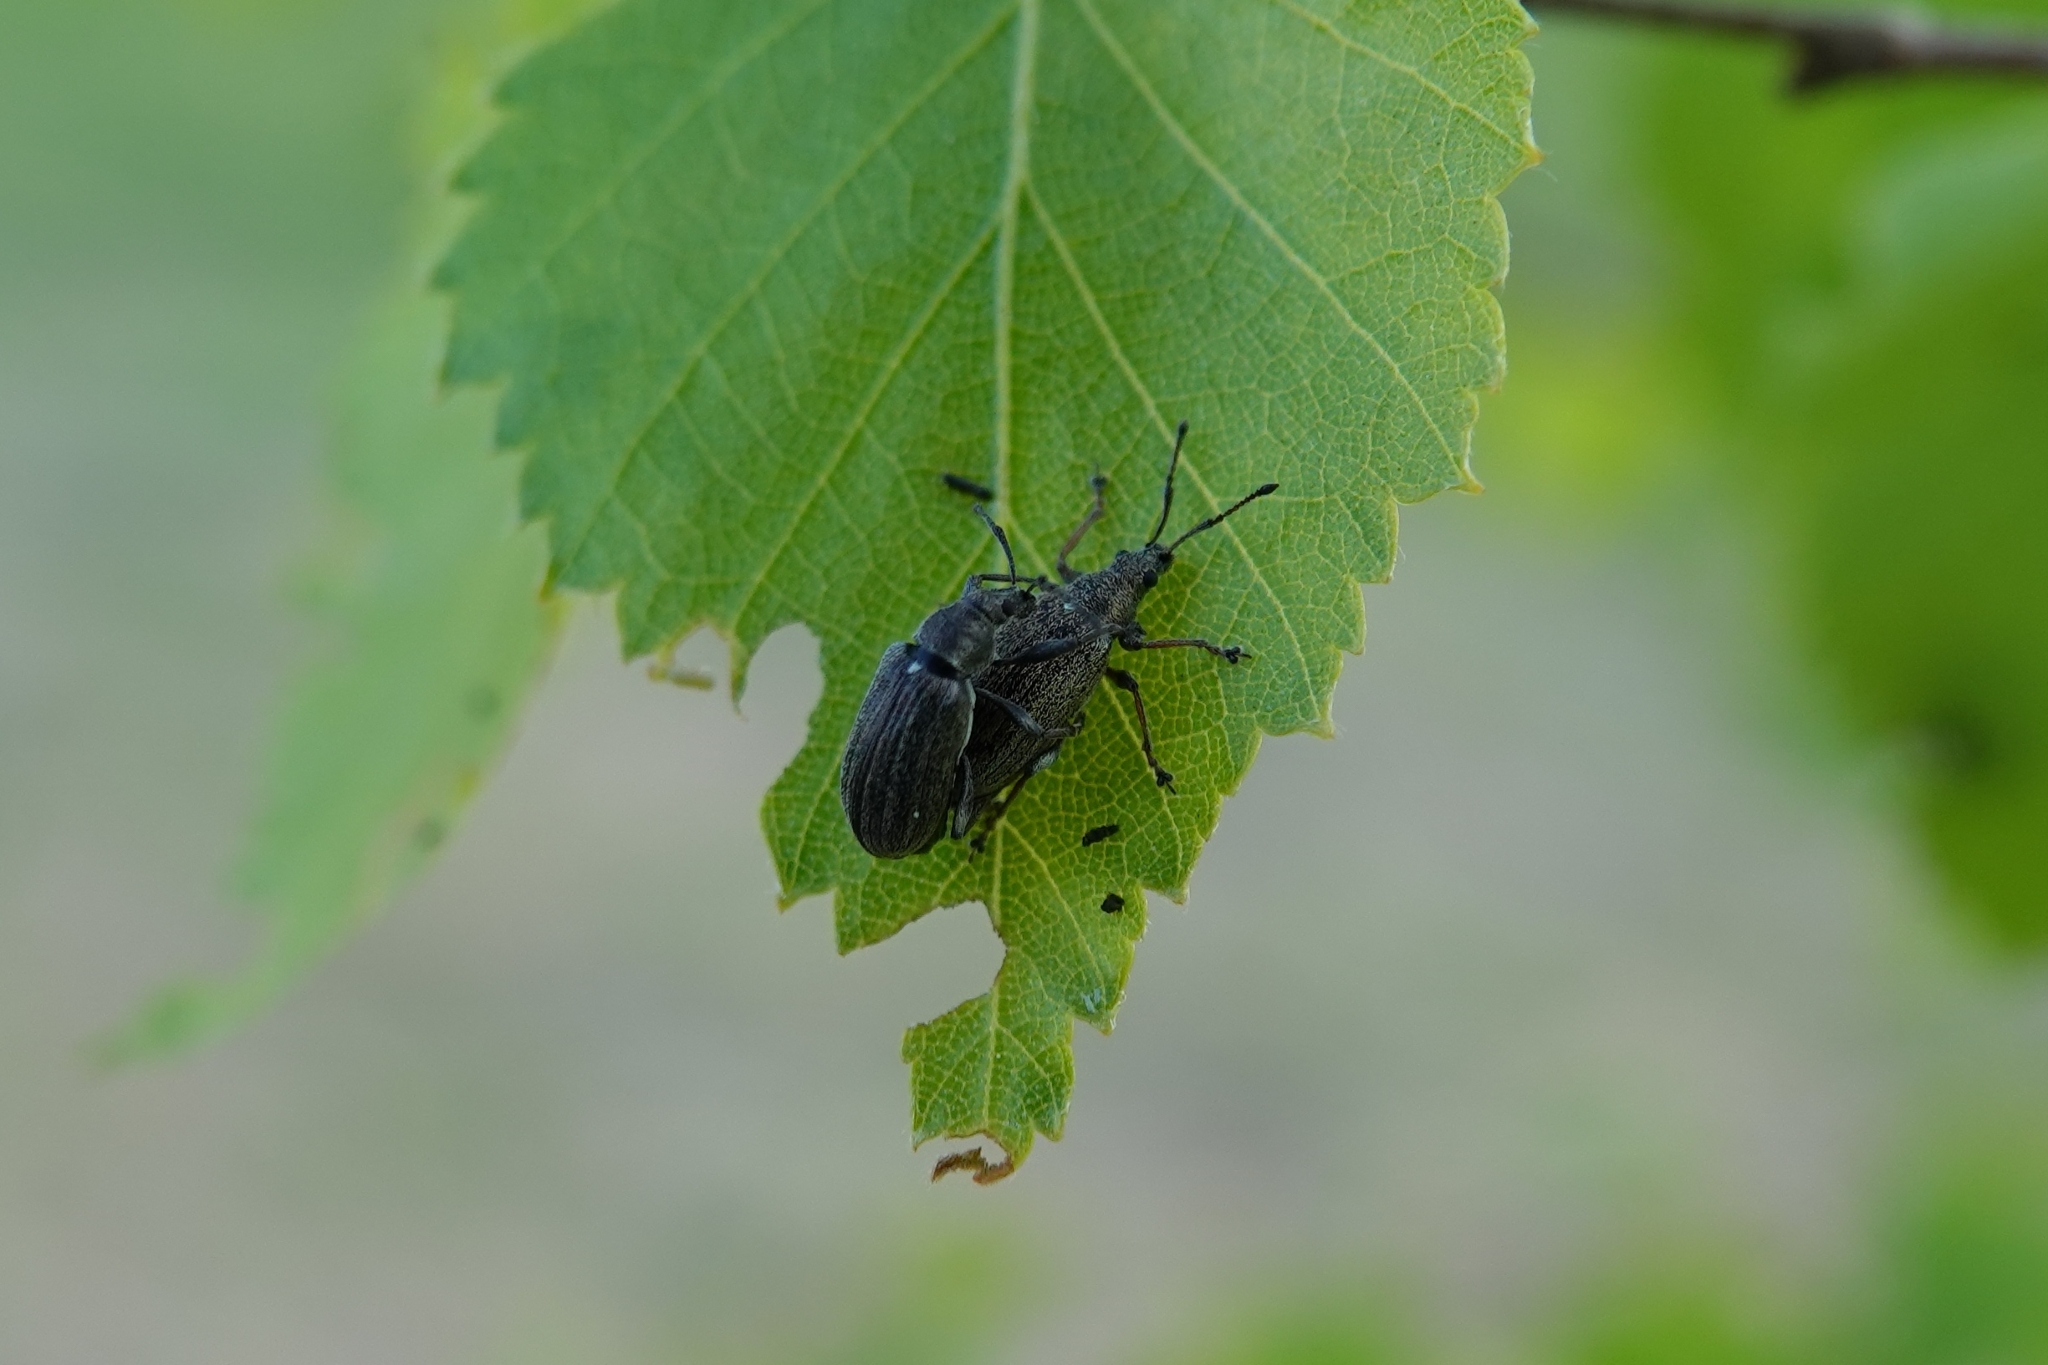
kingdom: Animalia
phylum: Arthropoda
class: Insecta
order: Coleoptera
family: Curculionidae
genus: Phyllobius
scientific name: Phyllobius pyri
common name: Common leaf weevil
